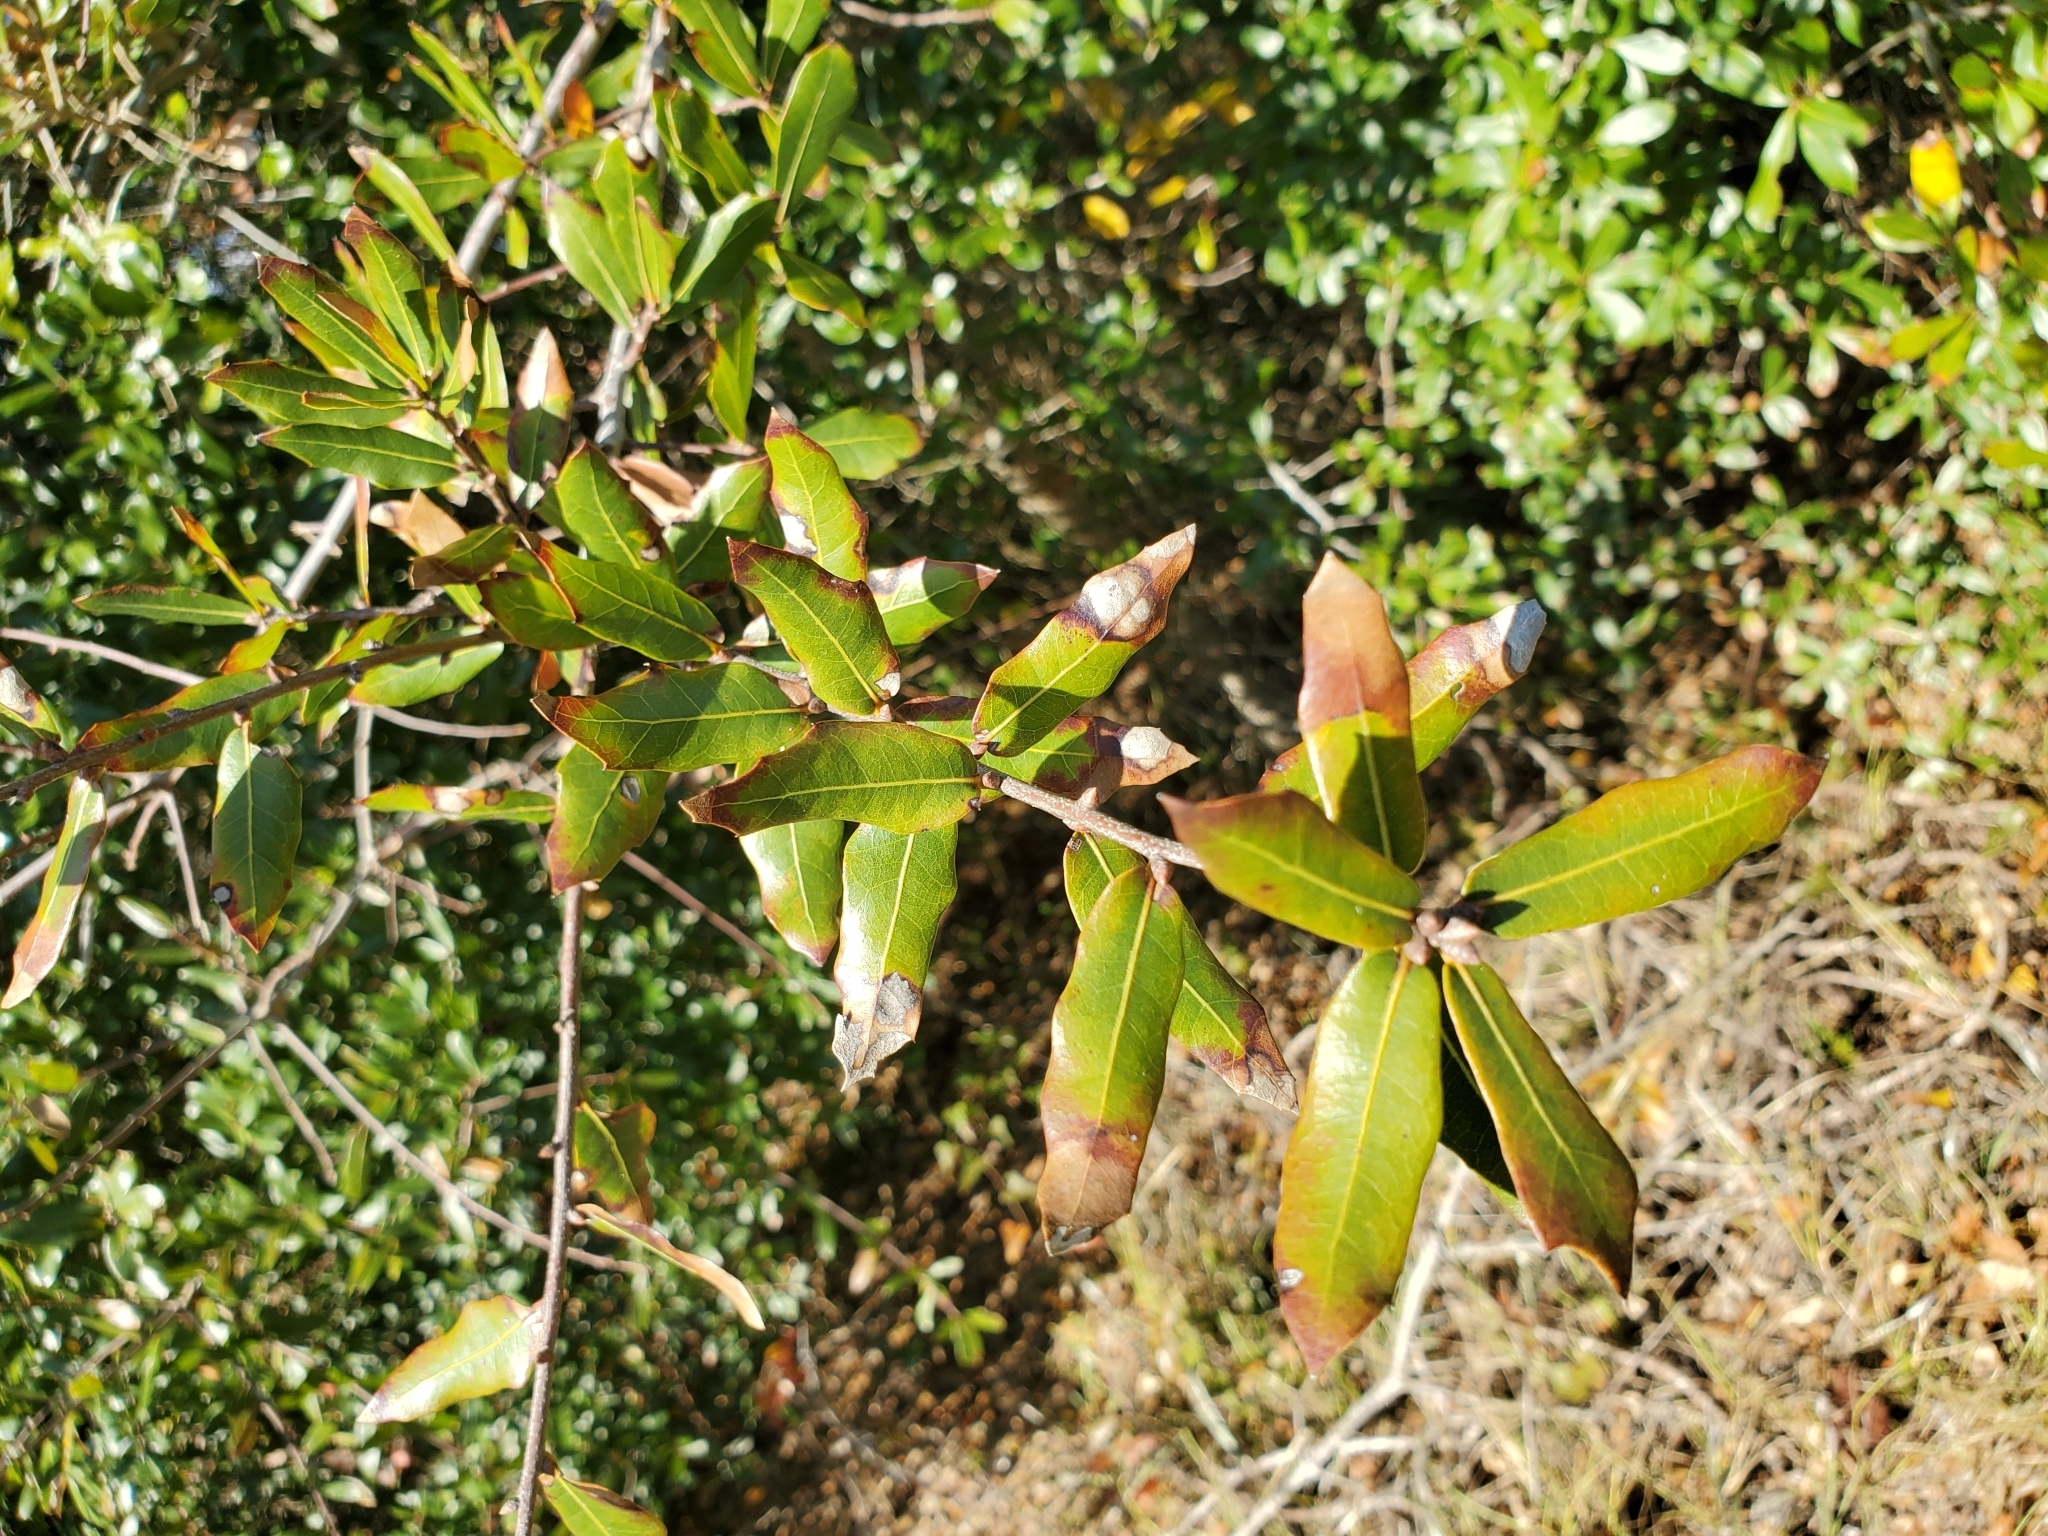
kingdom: Plantae
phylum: Tracheophyta
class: Magnoliopsida
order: Fagales
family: Fagaceae
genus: Quercus
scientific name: Quercus hemisphaerica
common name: Darlington oak
